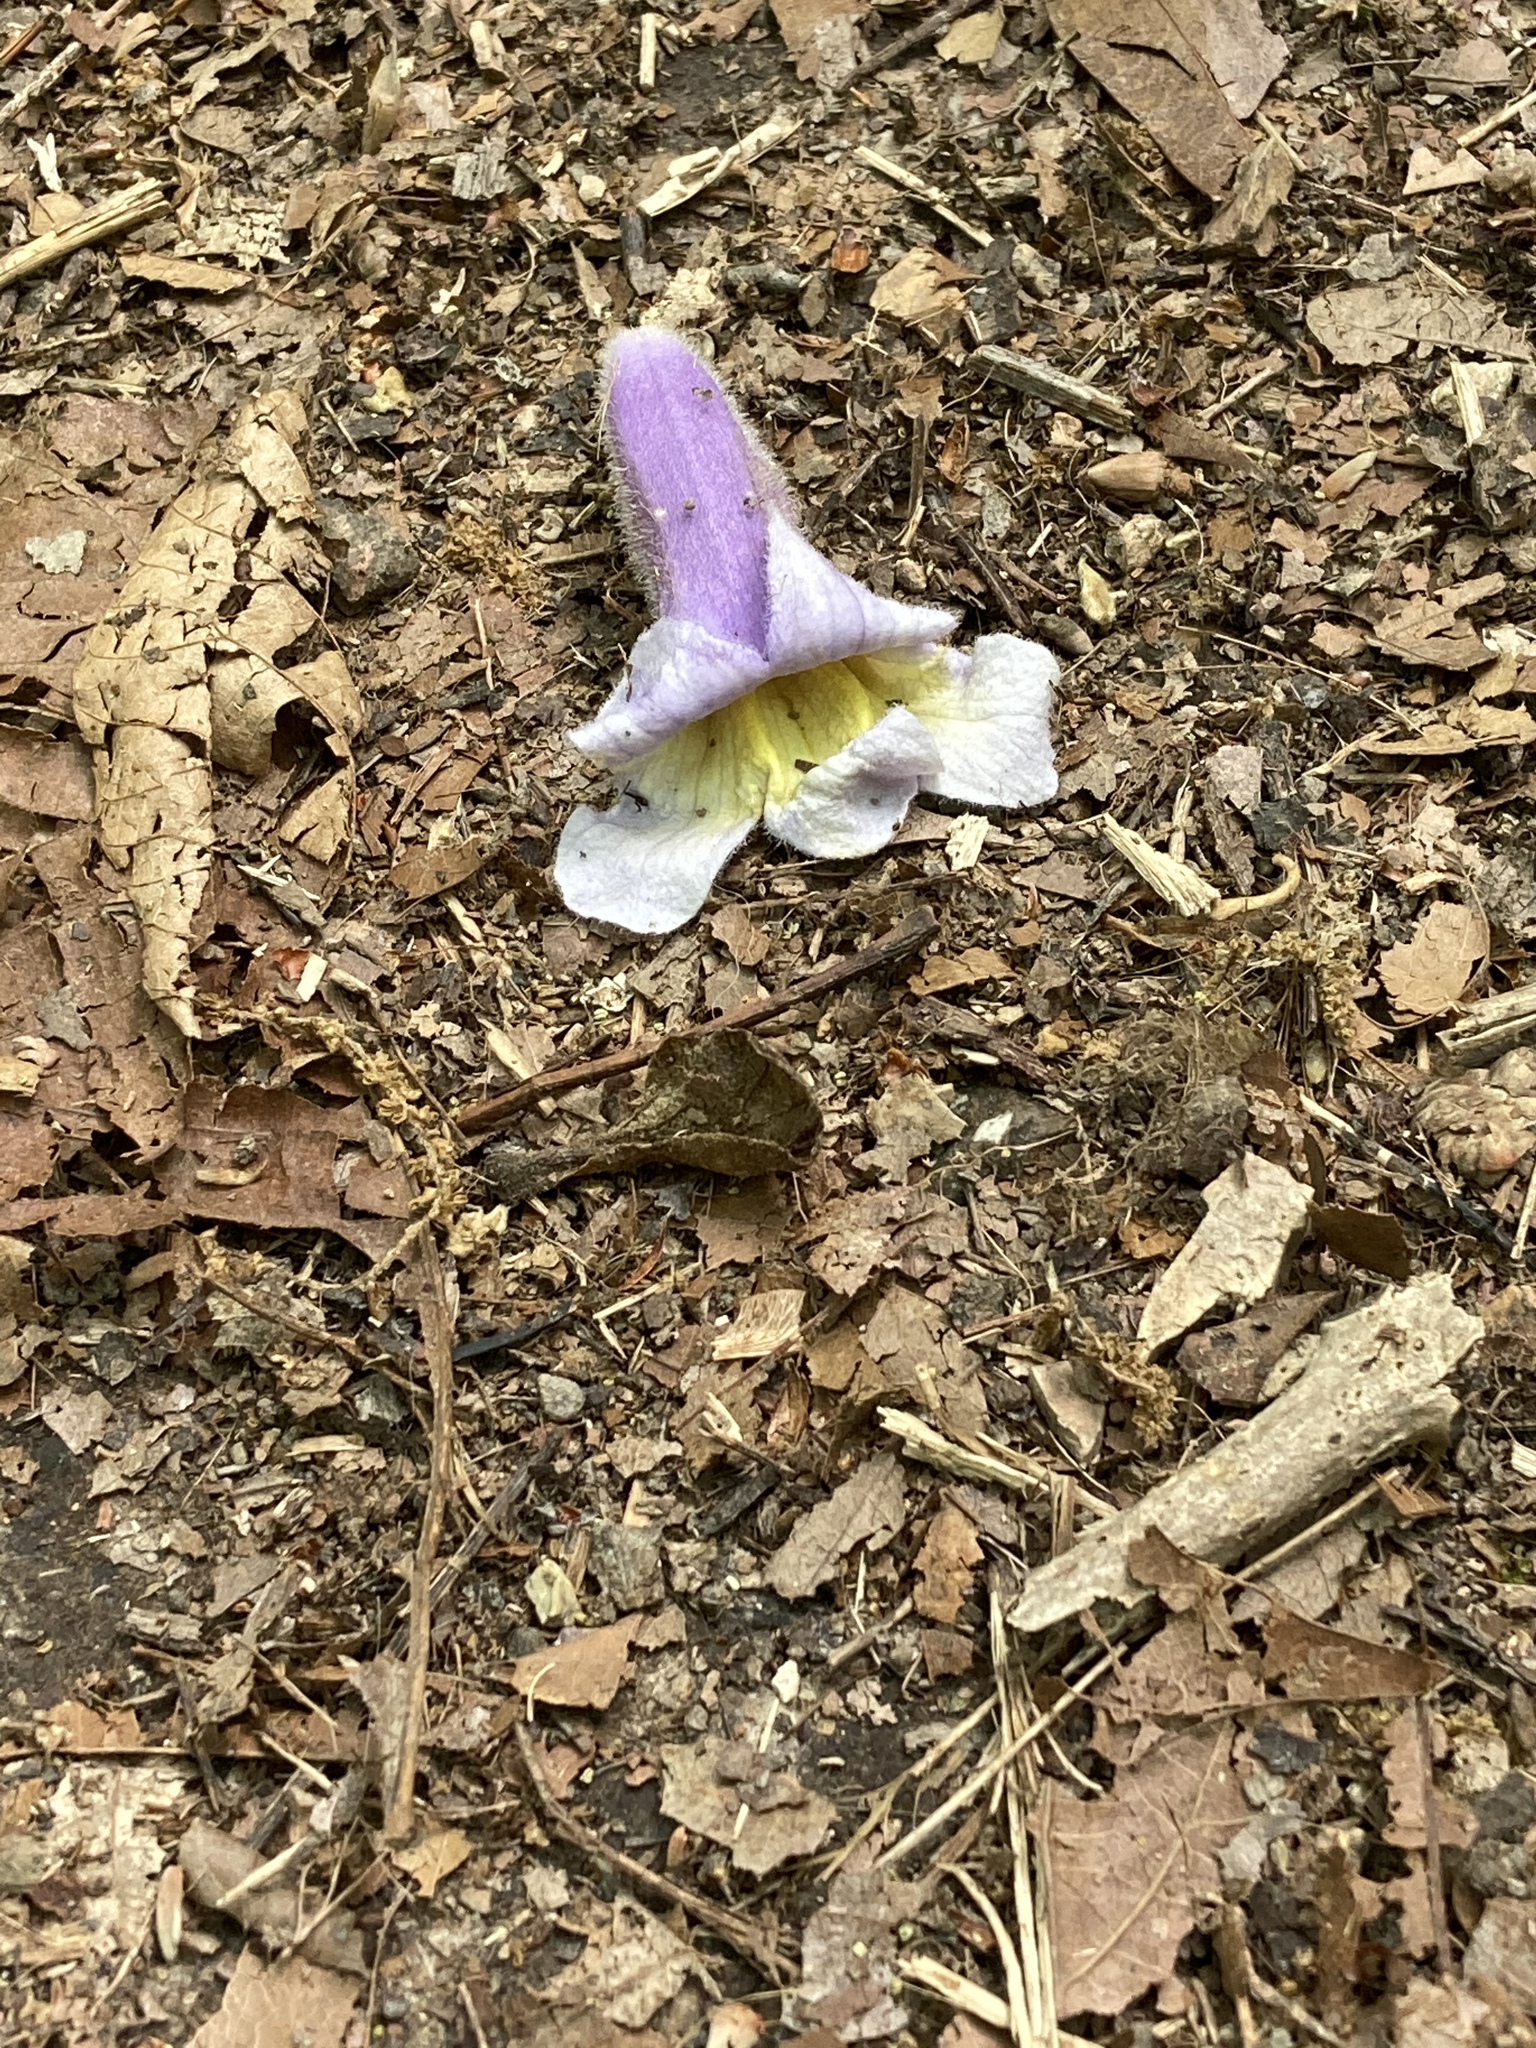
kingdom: Plantae
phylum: Tracheophyta
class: Magnoliopsida
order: Lamiales
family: Paulowniaceae
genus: Paulownia
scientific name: Paulownia tomentosa
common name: Foxglove-tree
